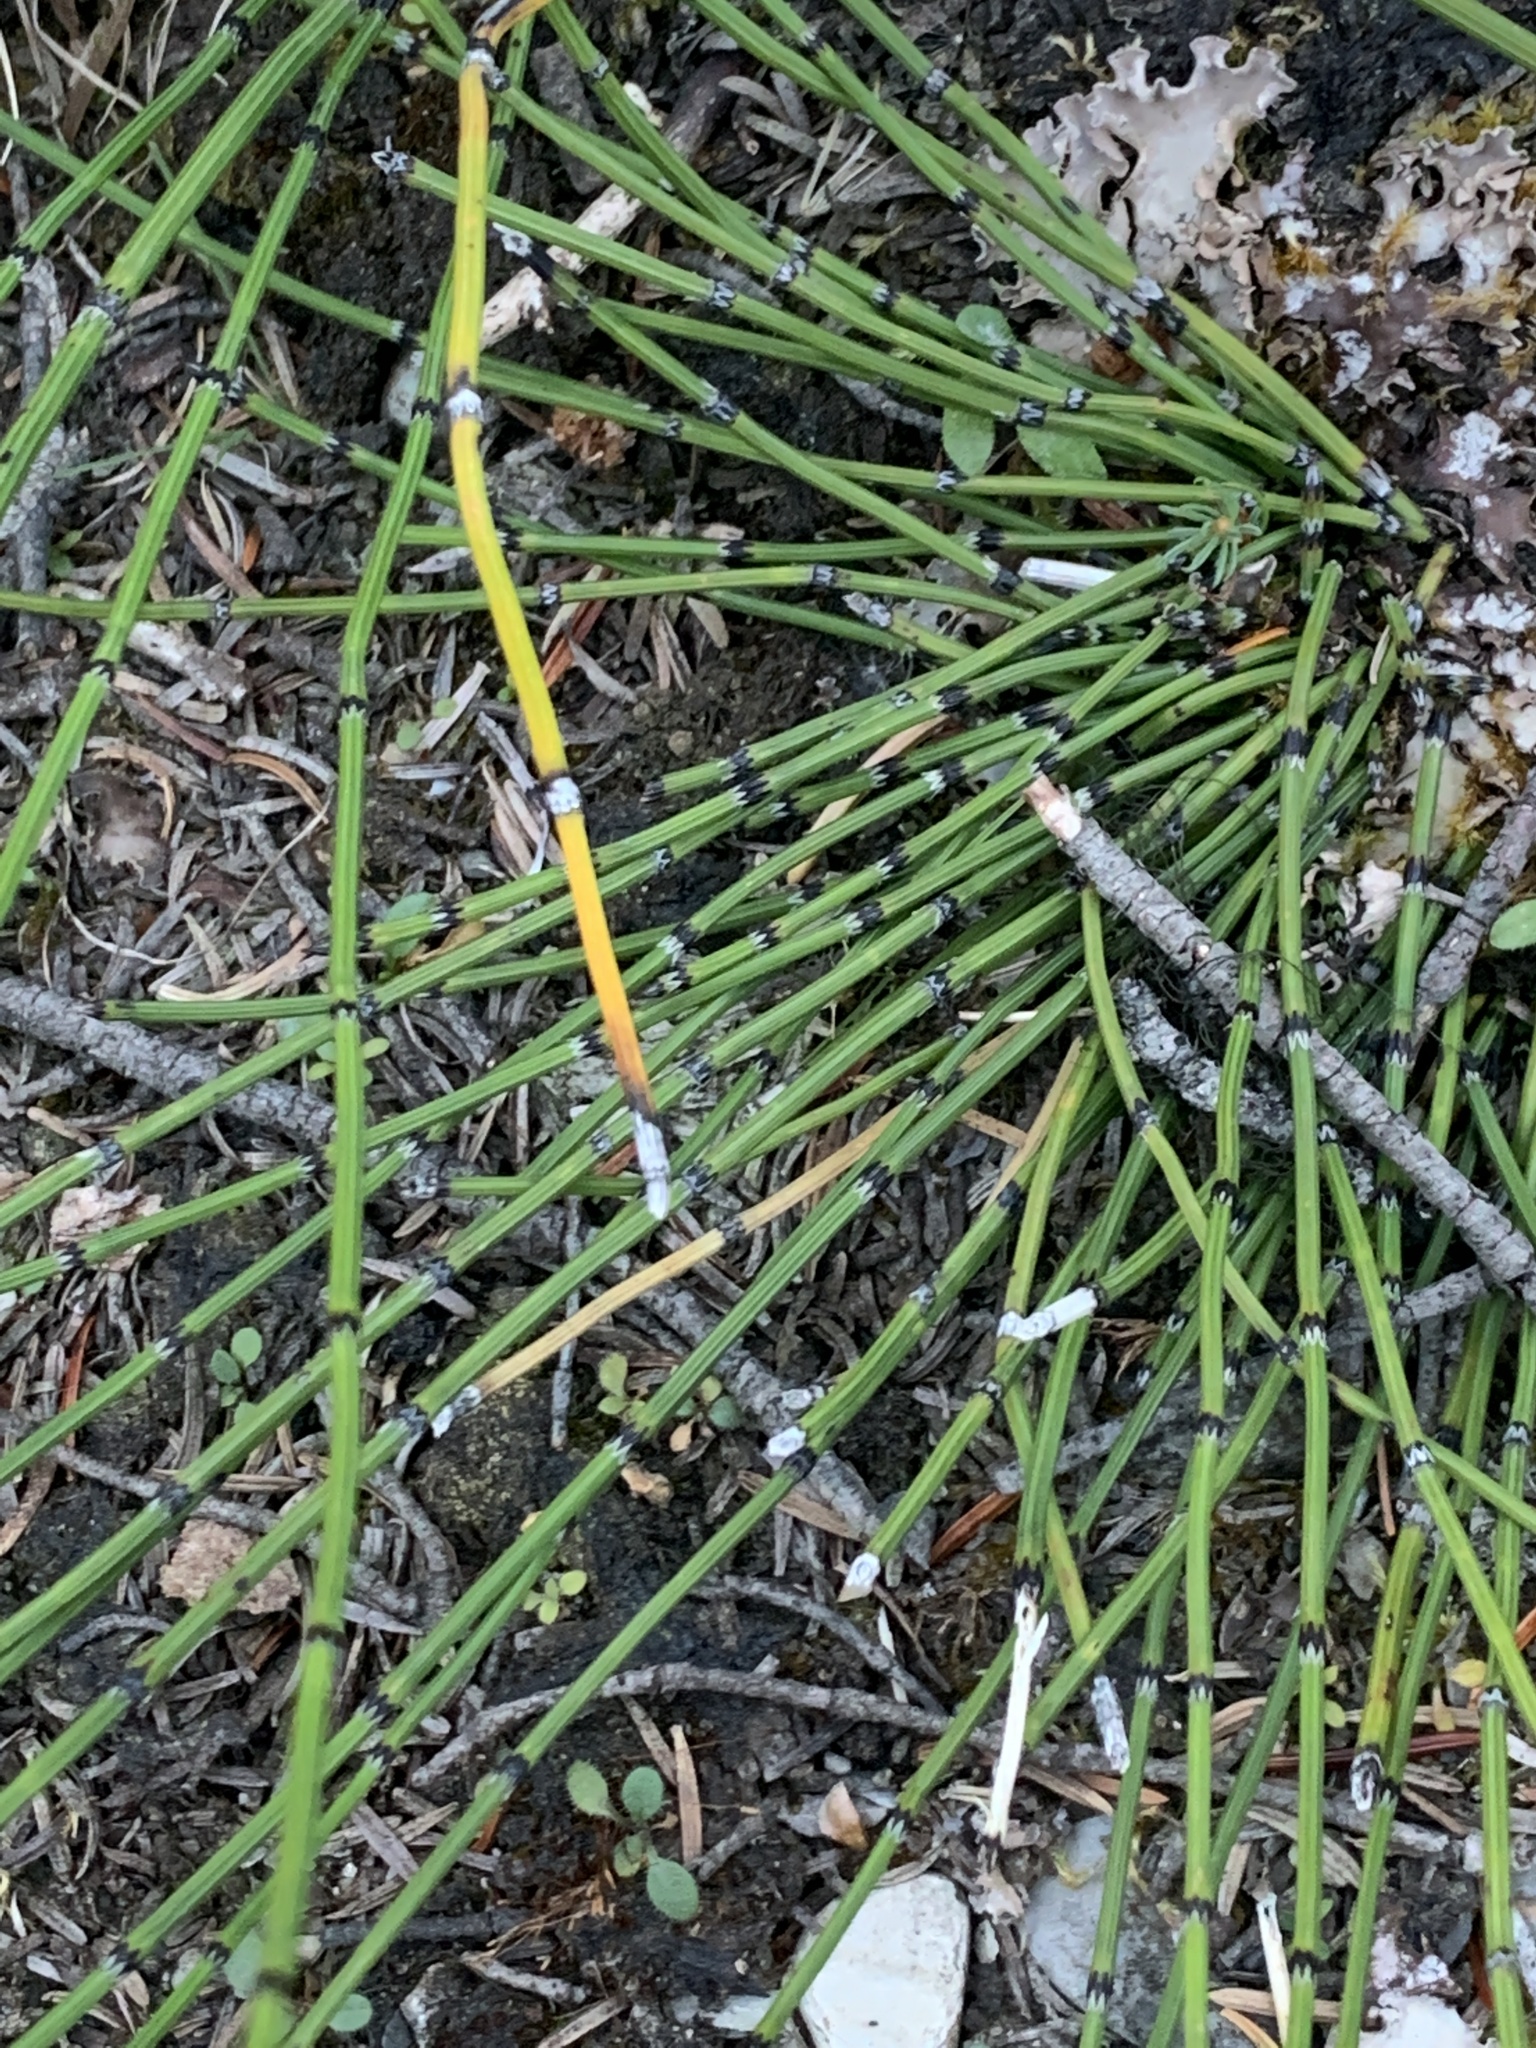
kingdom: Plantae
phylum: Tracheophyta
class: Polypodiopsida
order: Equisetales
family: Equisetaceae
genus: Equisetum
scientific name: Equisetum variegatum
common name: Variegated horsetail
